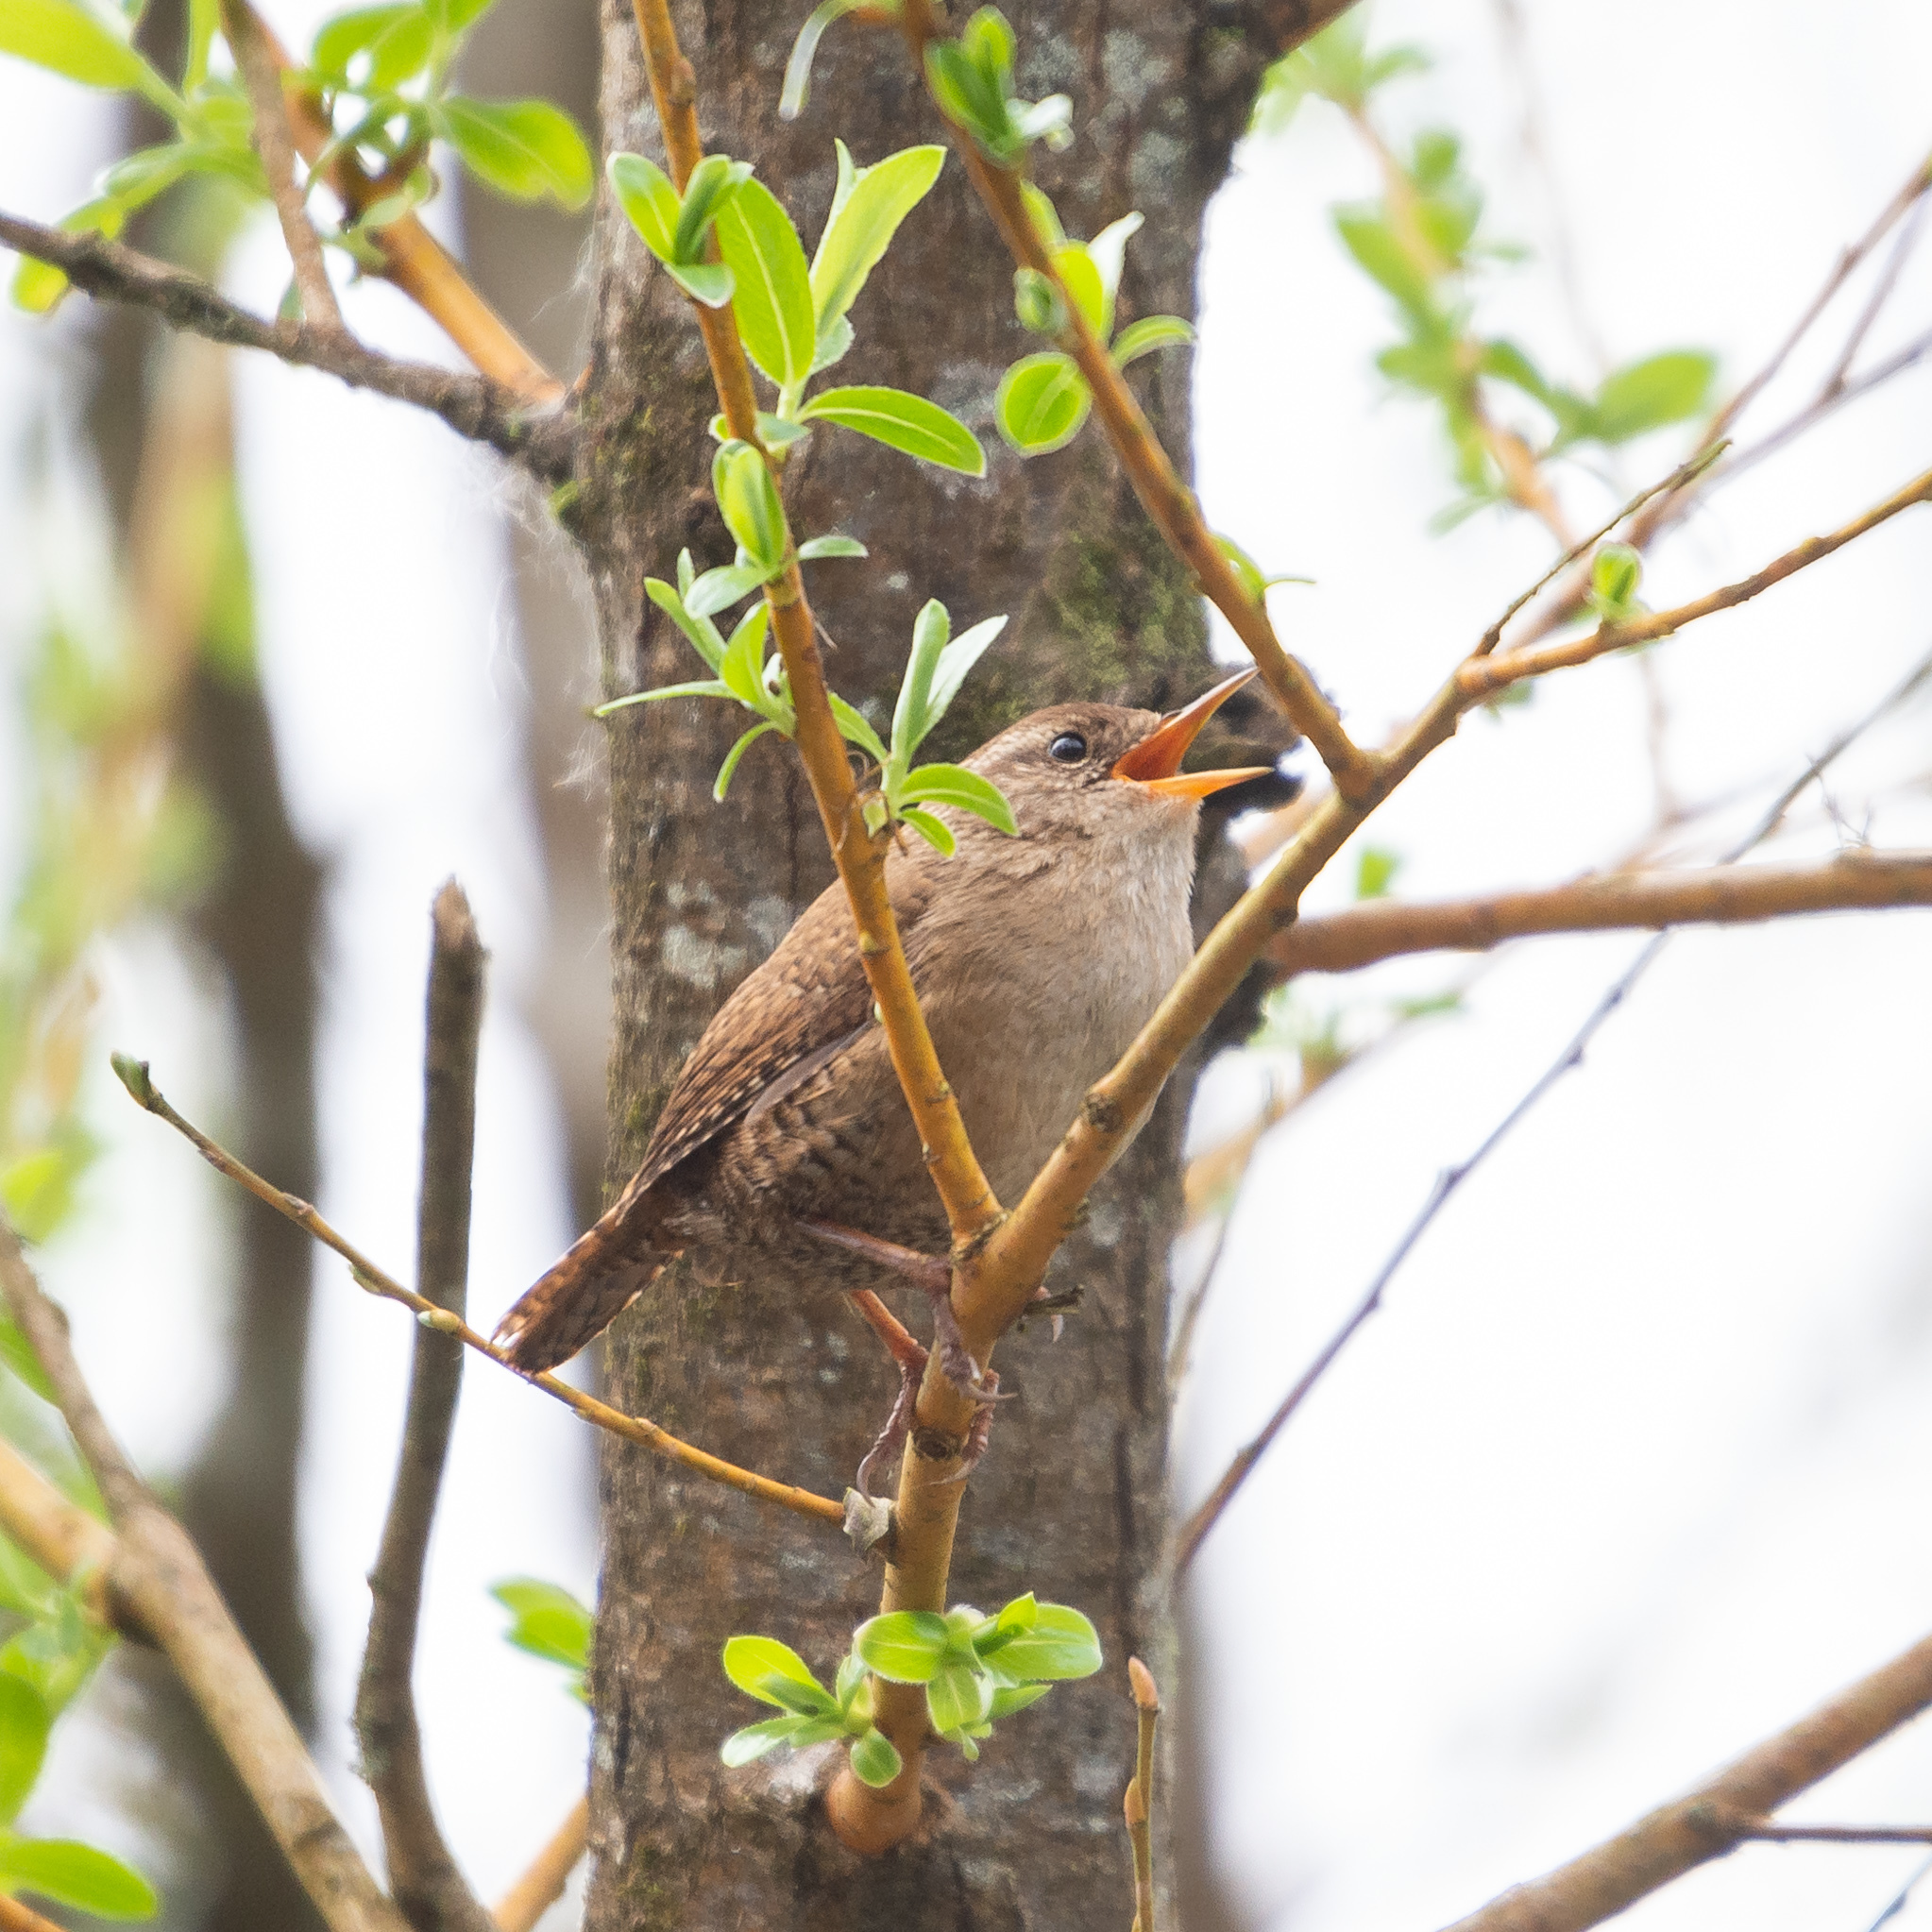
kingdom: Animalia
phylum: Chordata
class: Aves
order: Passeriformes
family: Troglodytidae
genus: Troglodytes
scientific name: Troglodytes troglodytes
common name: Eurasian wren
